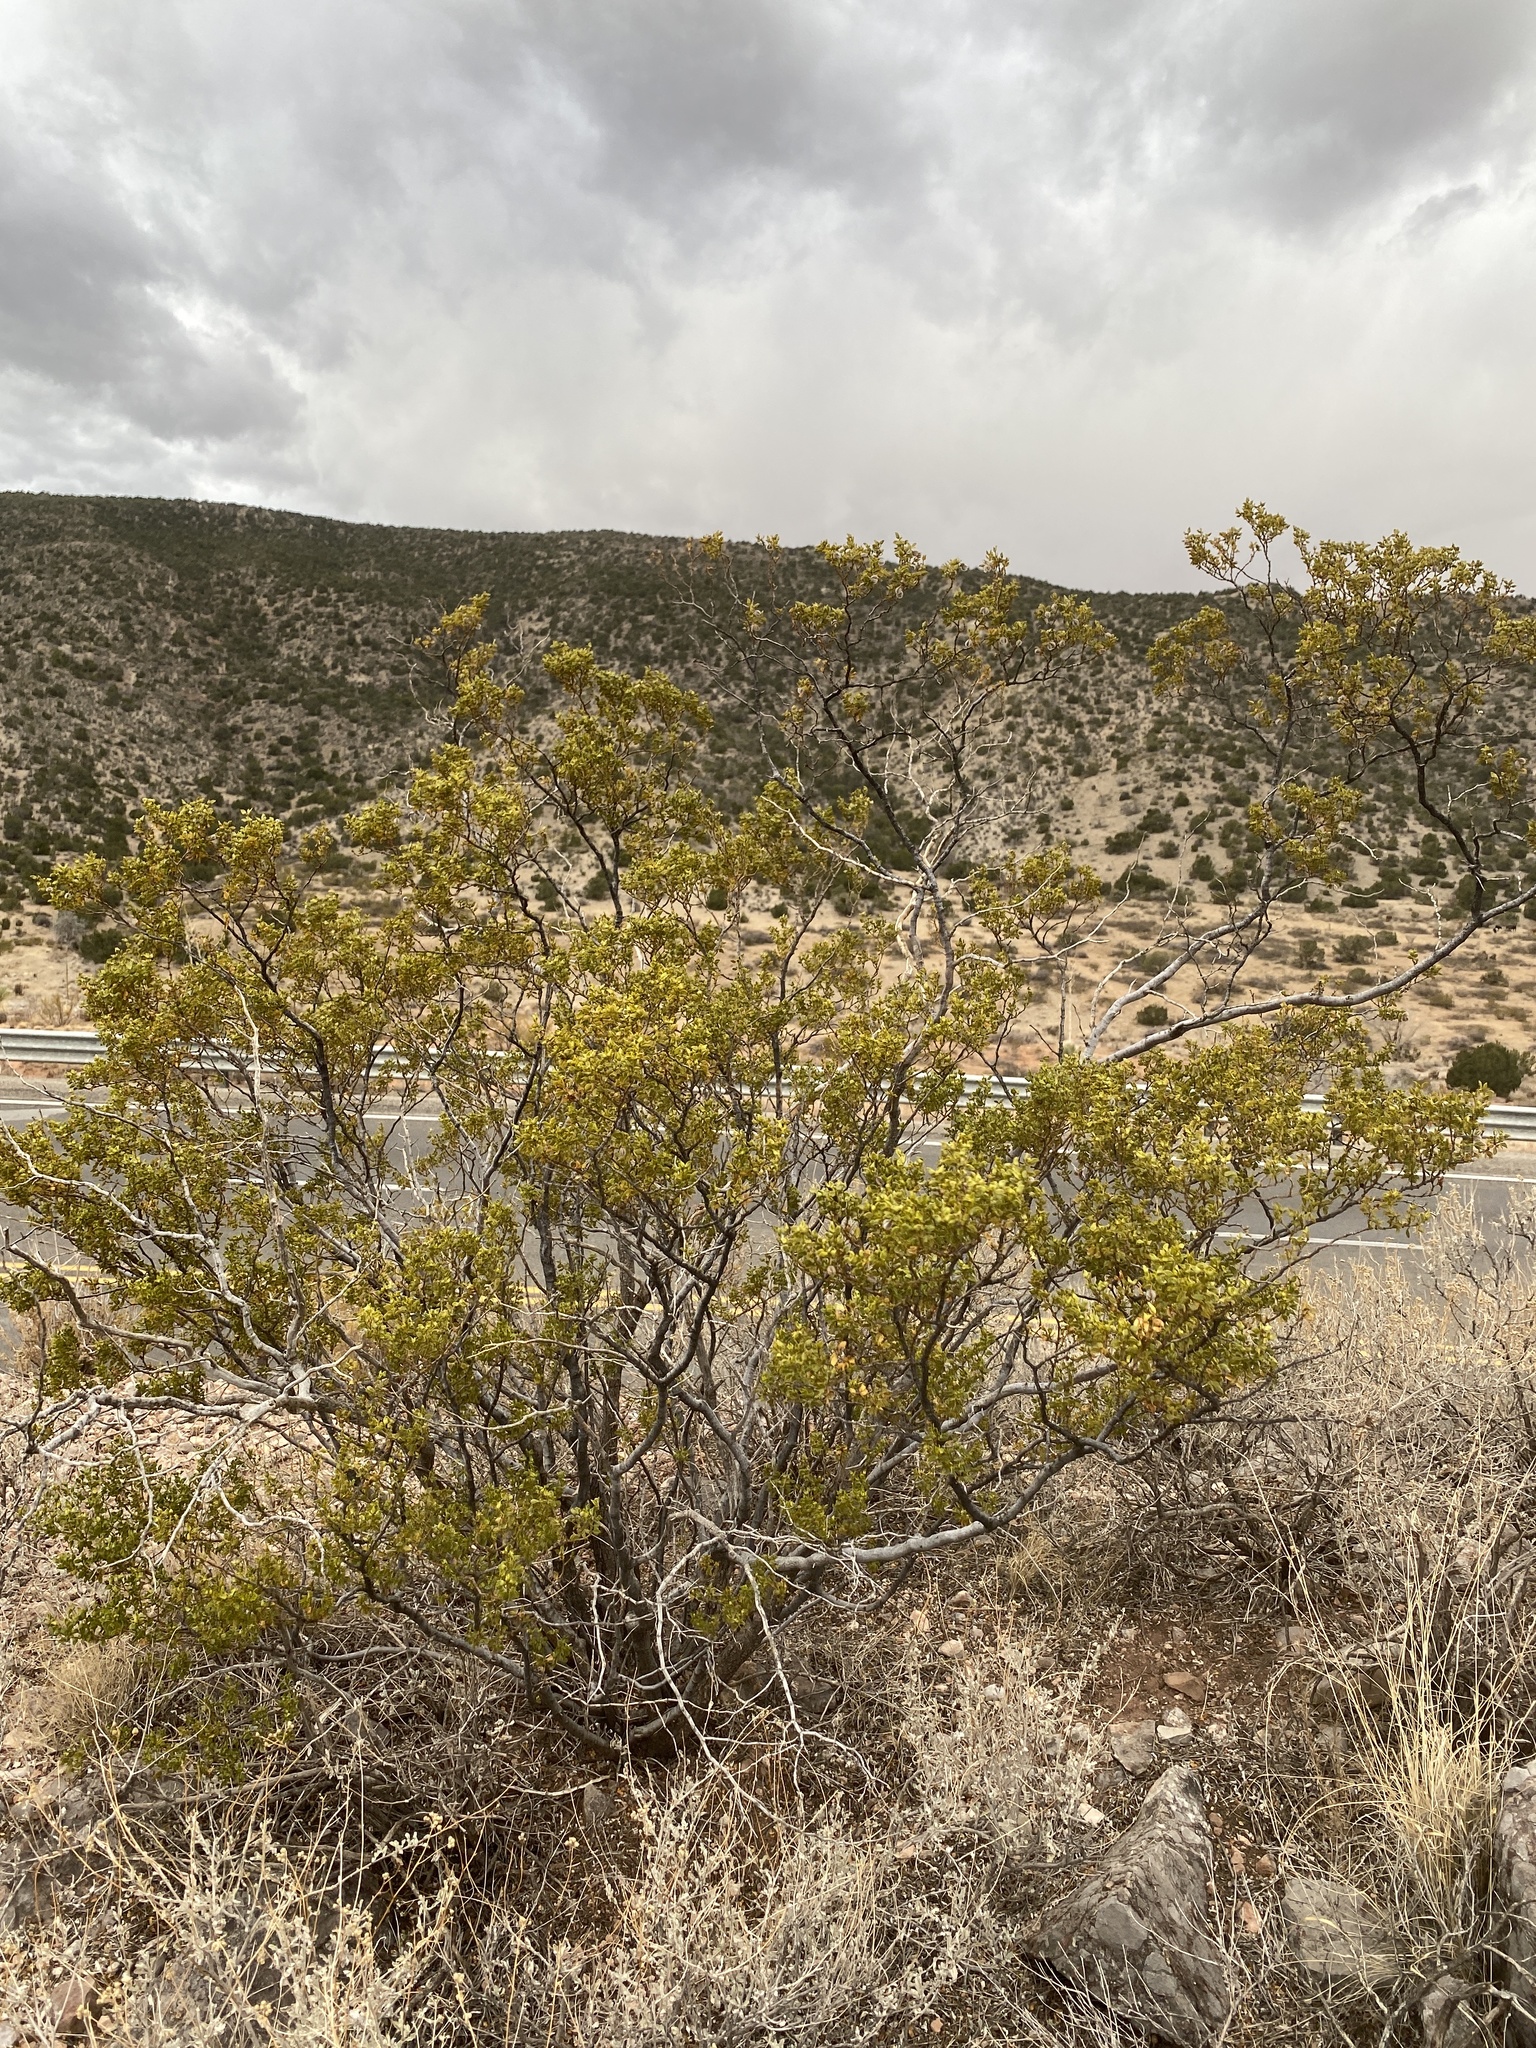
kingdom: Plantae
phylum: Tracheophyta
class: Magnoliopsida
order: Zygophyllales
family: Zygophyllaceae
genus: Larrea
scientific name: Larrea tridentata
